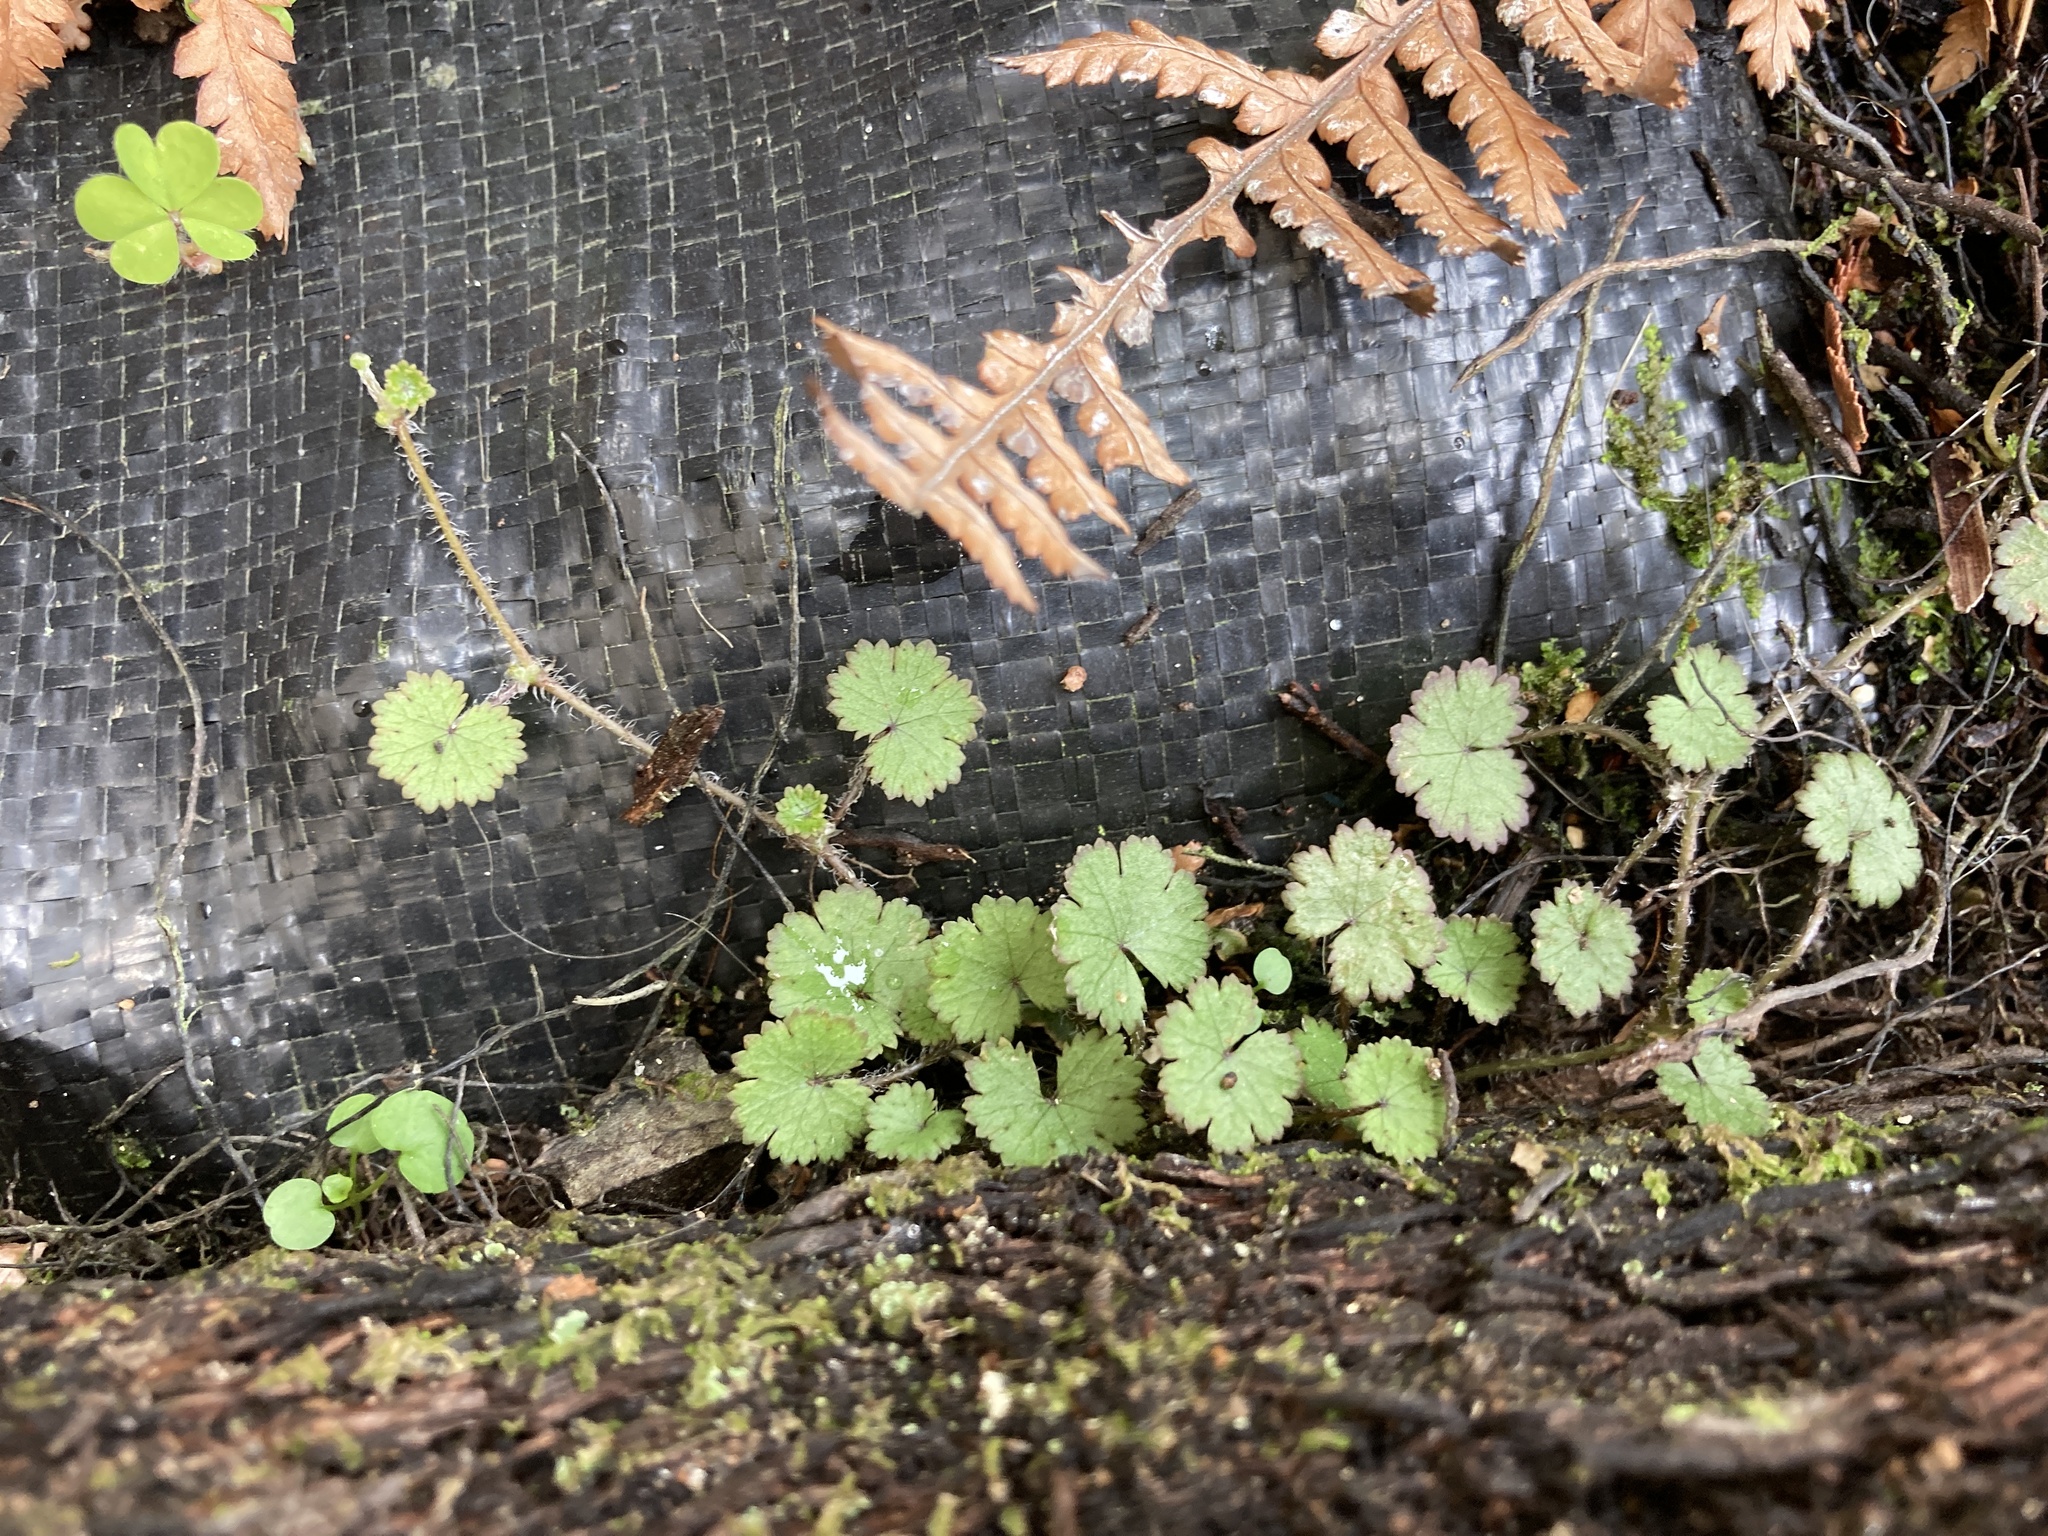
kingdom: Plantae
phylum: Tracheophyta
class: Magnoliopsida
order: Apiales
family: Araliaceae
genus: Hydrocotyle
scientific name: Hydrocotyle moschata
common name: Hairy pennywort
